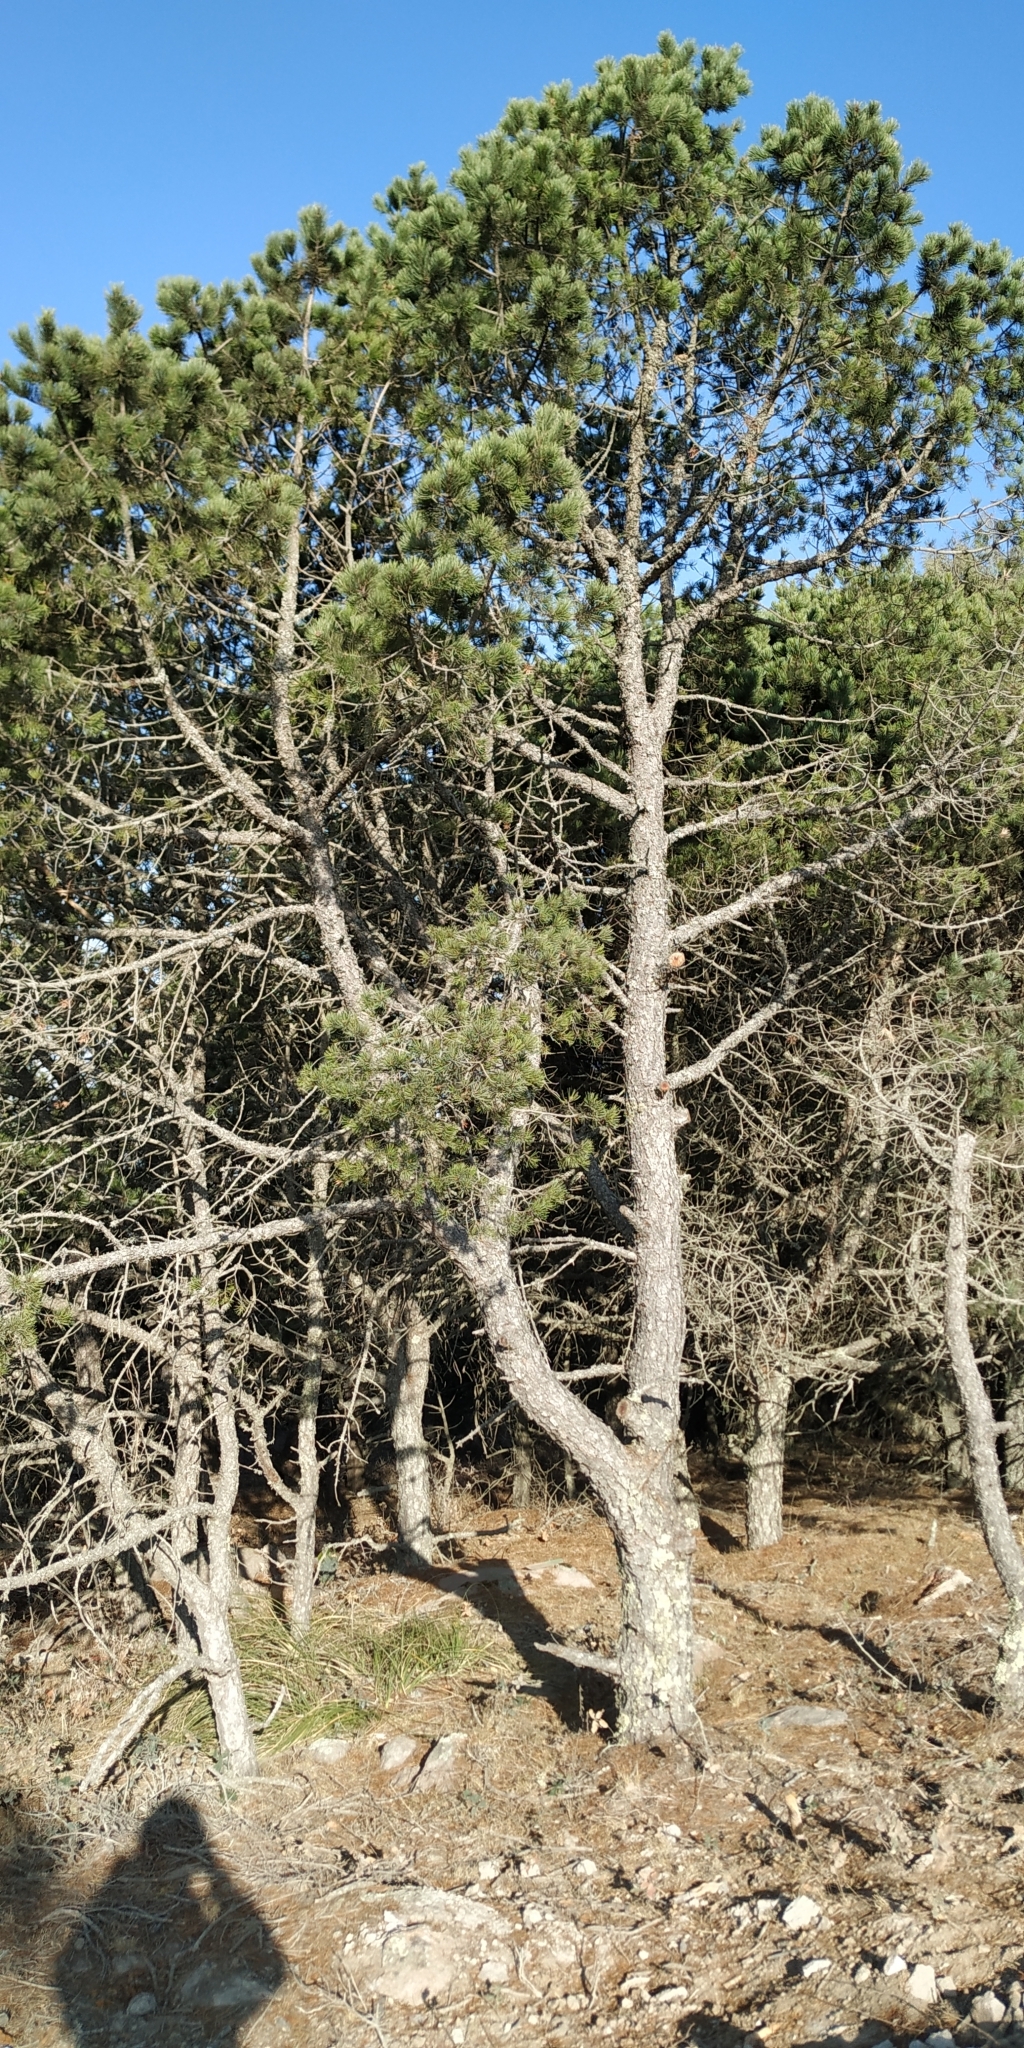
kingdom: Plantae
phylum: Tracheophyta
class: Pinopsida
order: Pinales
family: Pinaceae
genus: Pinus
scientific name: Pinus cembroides
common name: Mexican nut pine
